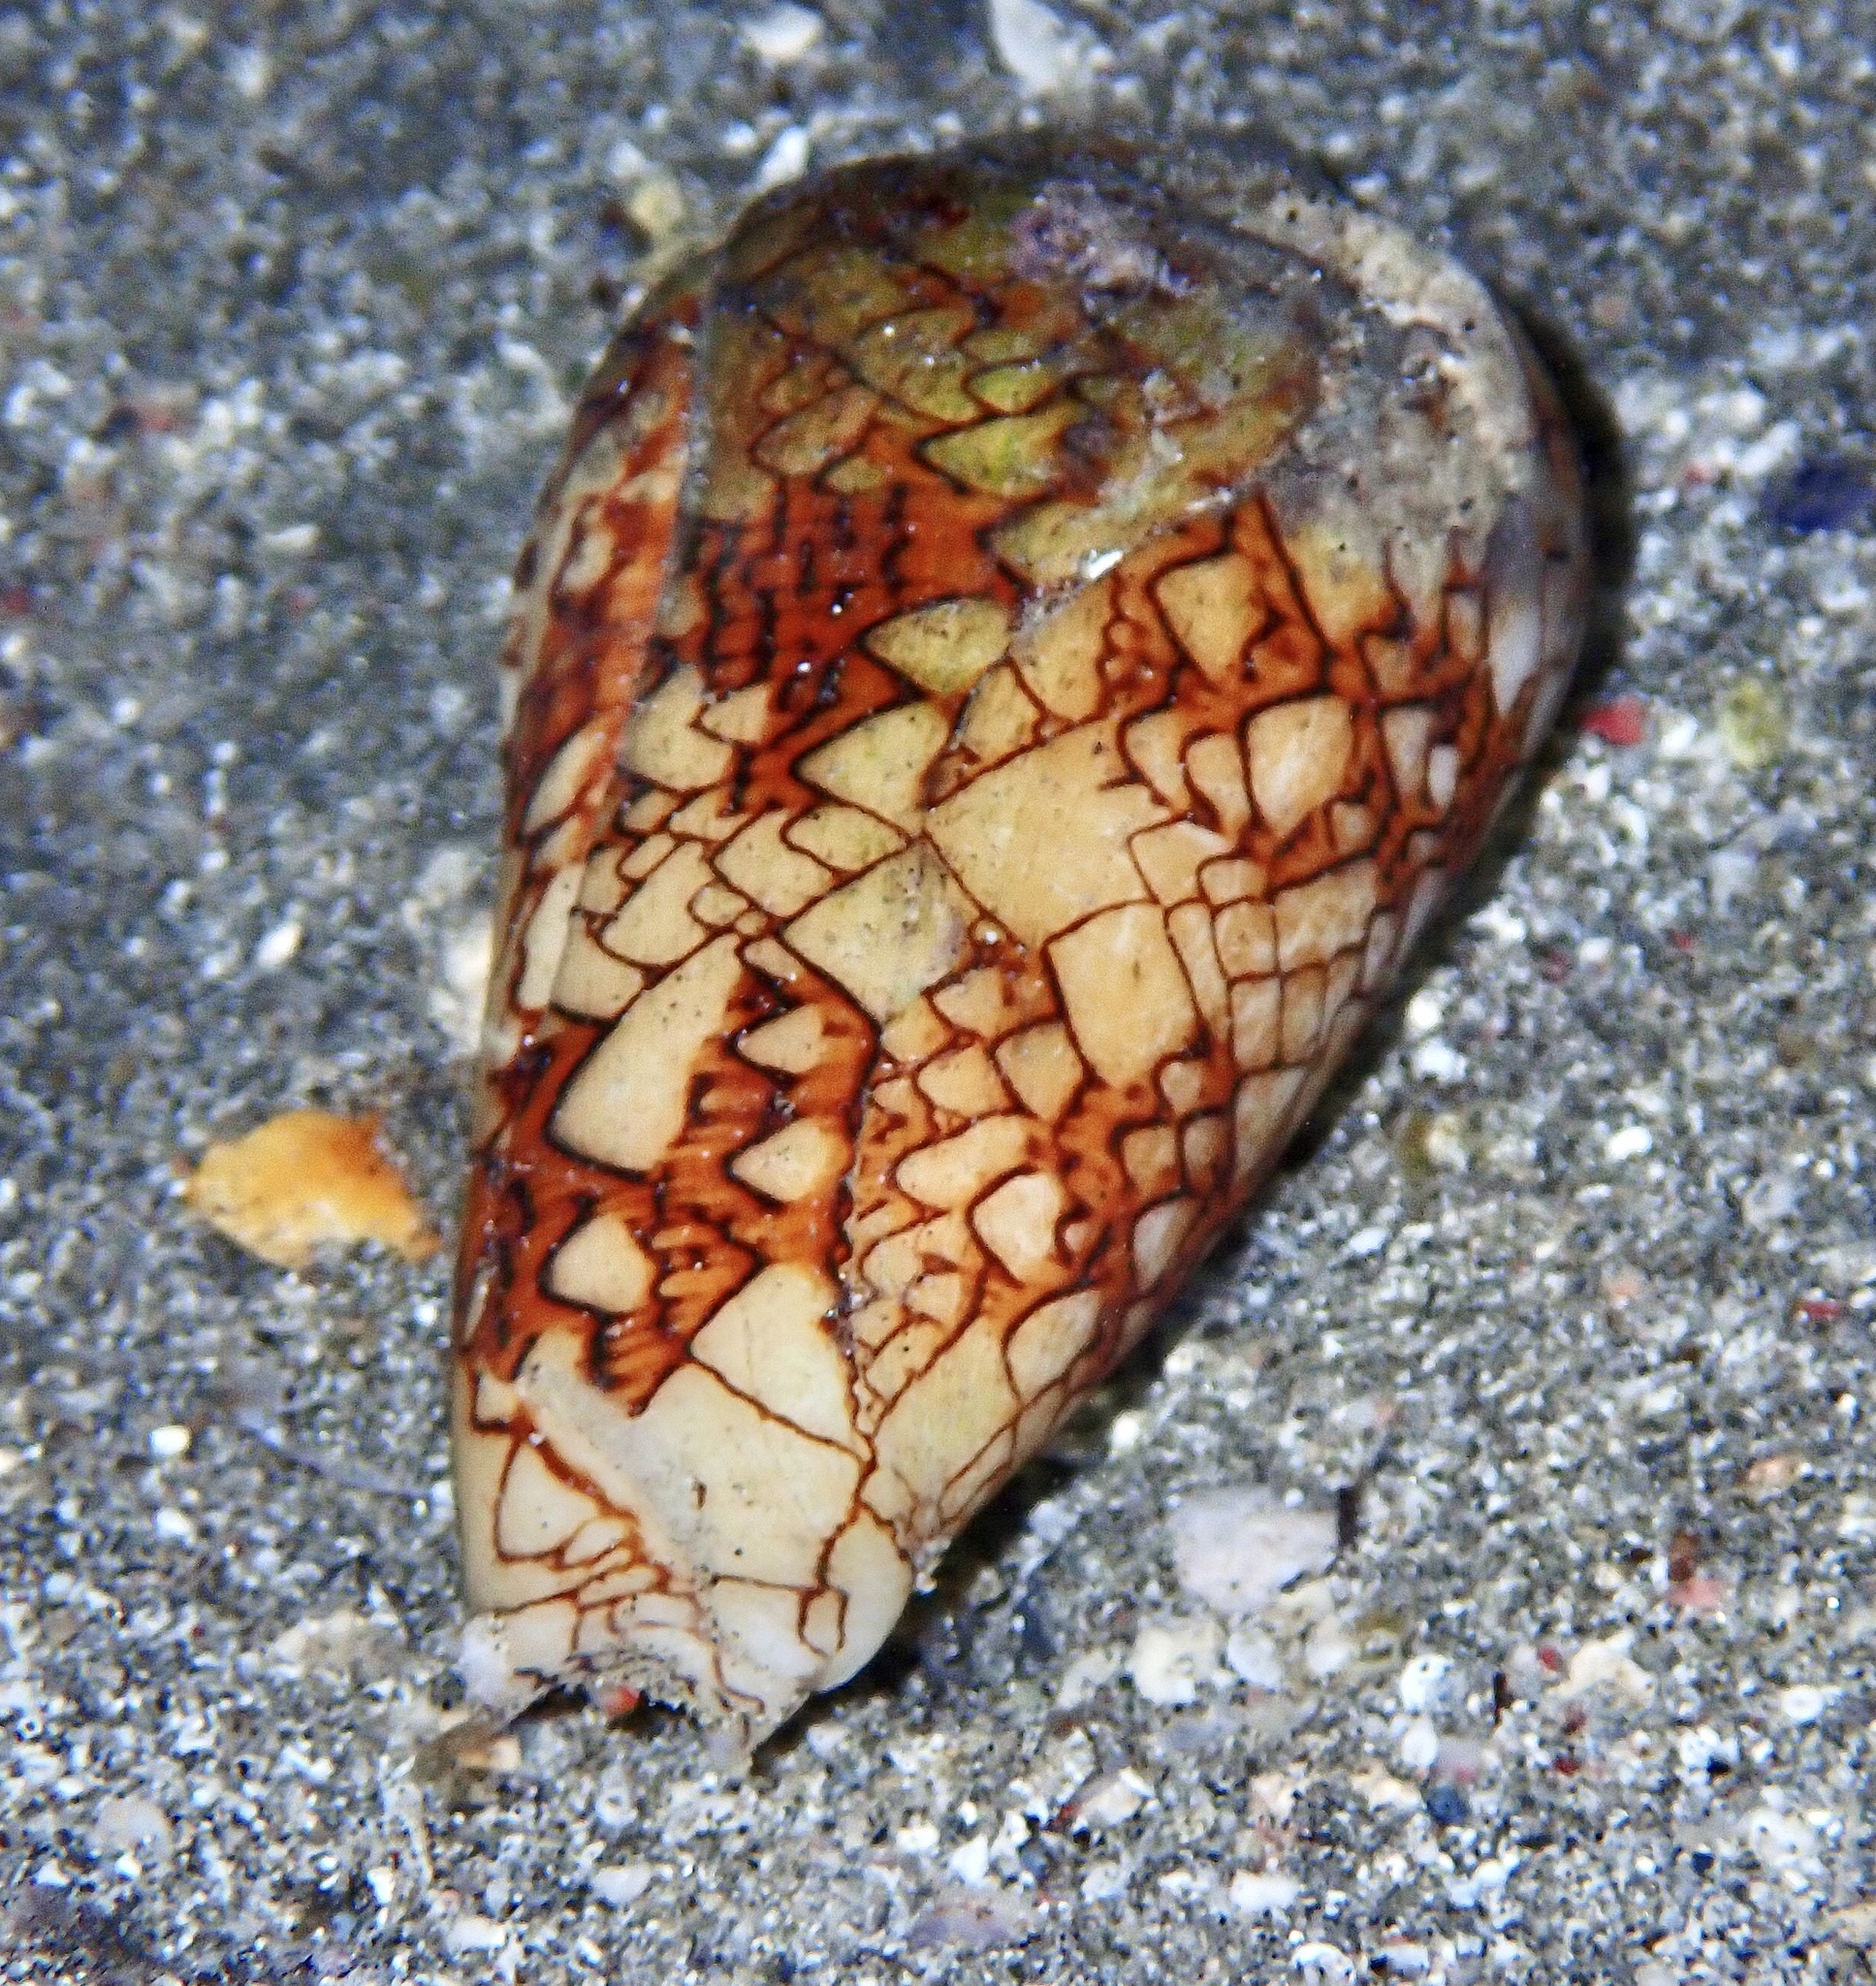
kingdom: Animalia
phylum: Mollusca
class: Gastropoda
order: Neogastropoda
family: Conidae
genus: Conus
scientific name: Conus textile
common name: Cloth-of-gold cone
